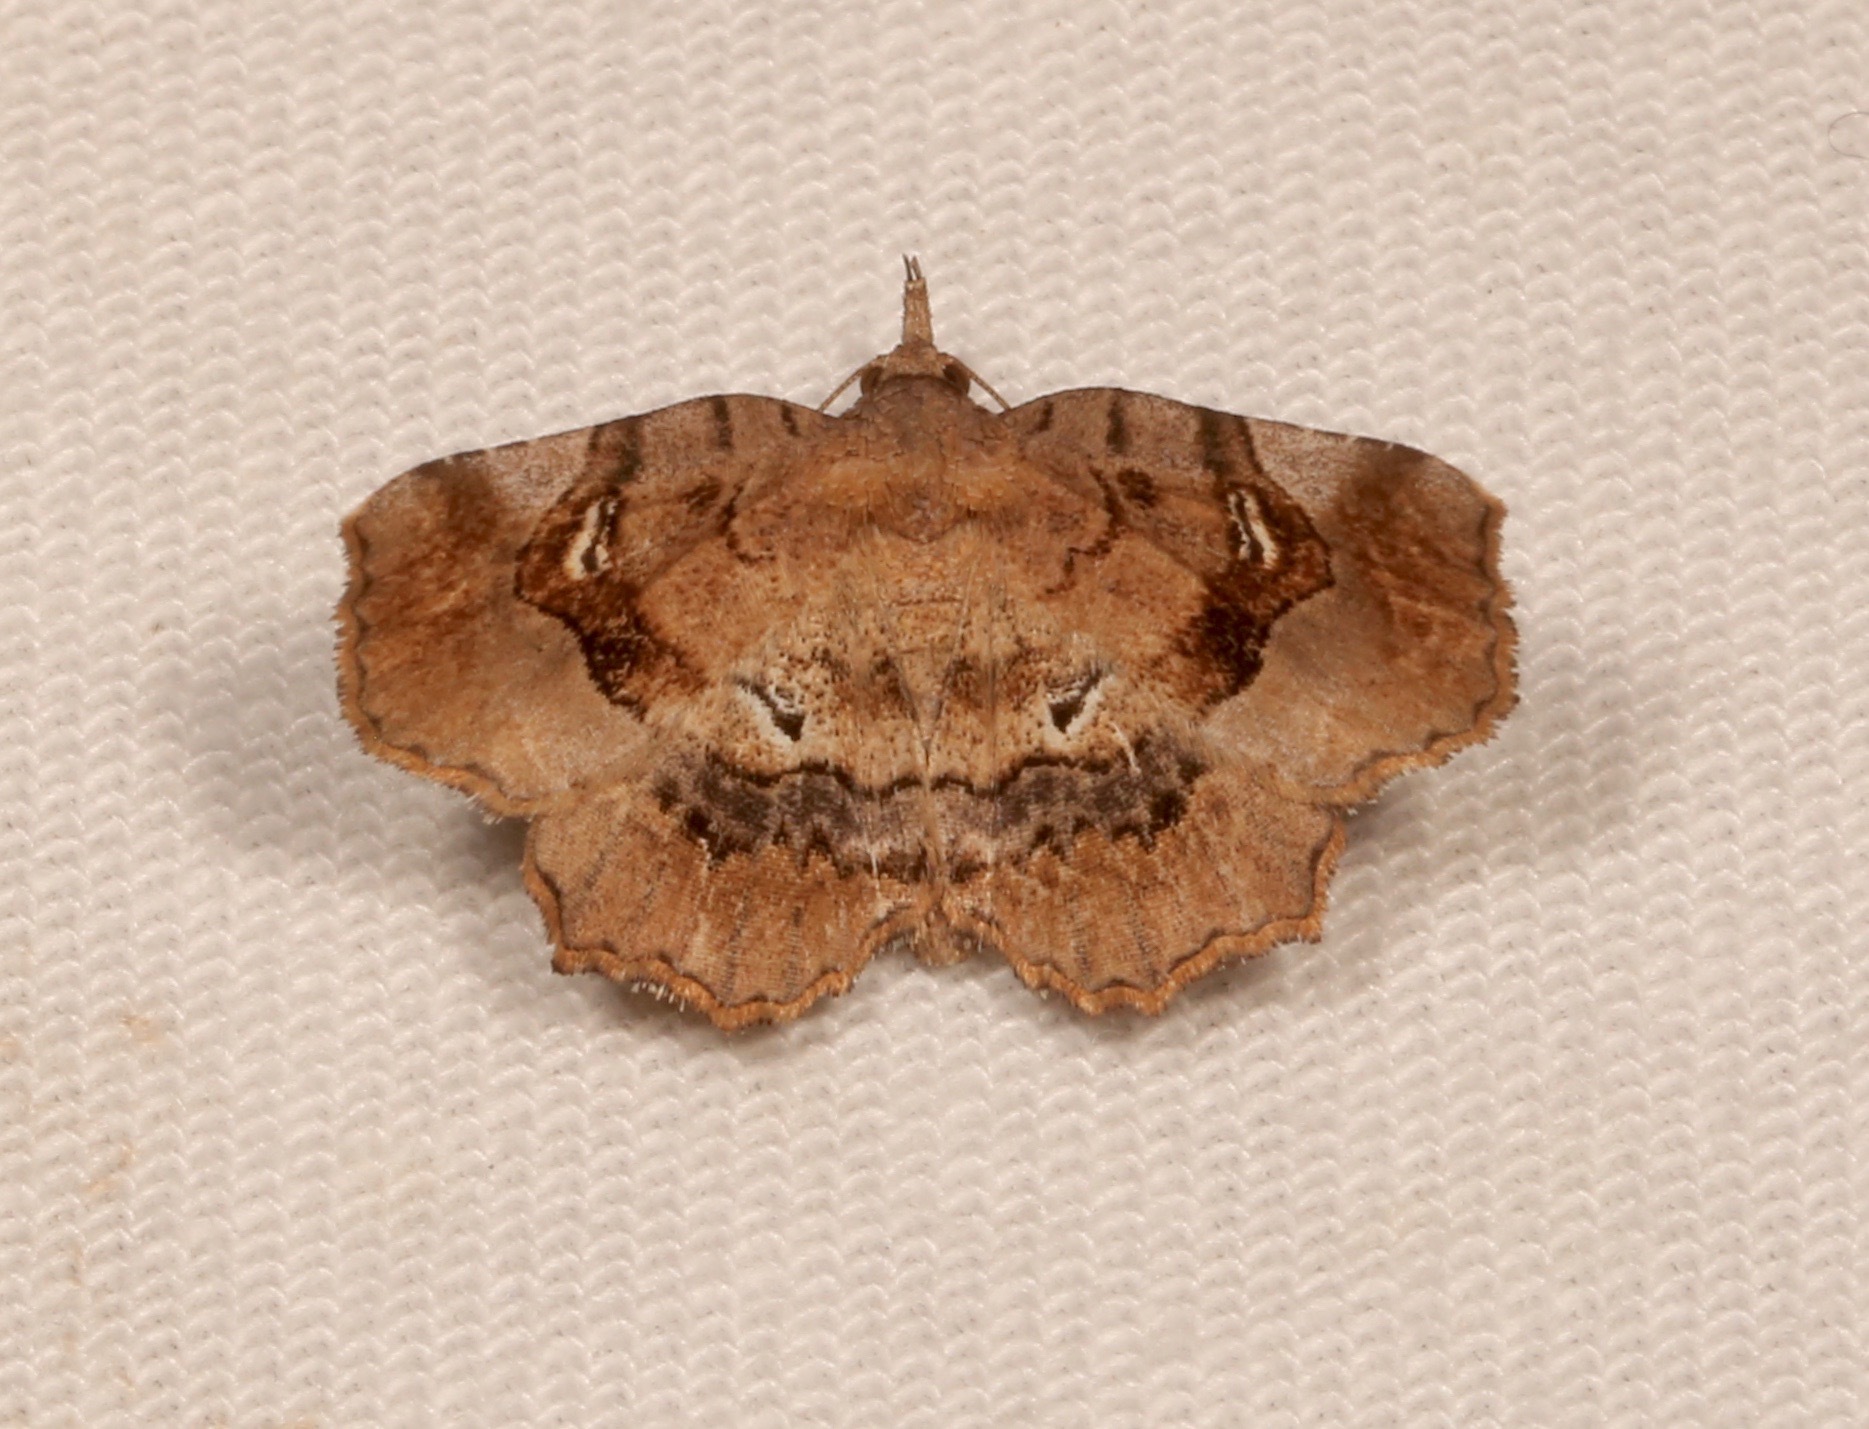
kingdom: Animalia
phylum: Arthropoda
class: Insecta
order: Lepidoptera
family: Erebidae
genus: Pangrapta
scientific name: Pangrapta decoralis
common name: Decorated owlet
